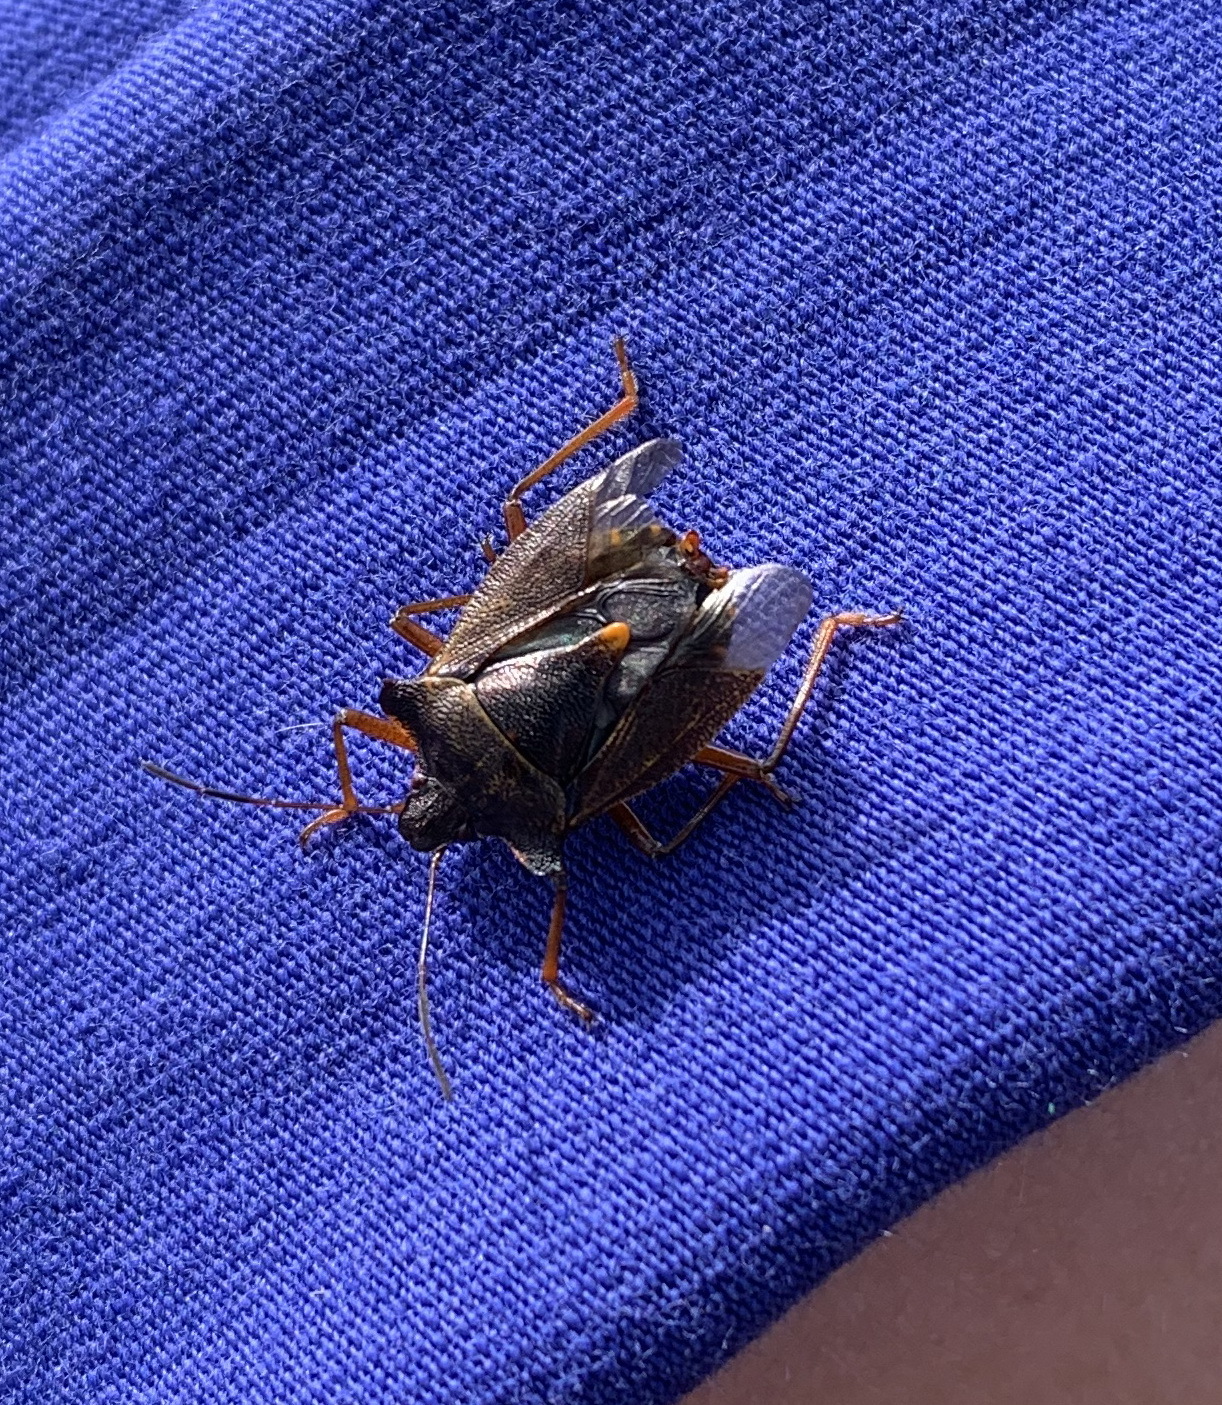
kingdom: Animalia
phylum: Arthropoda
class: Insecta
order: Hemiptera
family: Pentatomidae
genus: Pentatoma
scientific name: Pentatoma rufipes
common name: Forest bug
